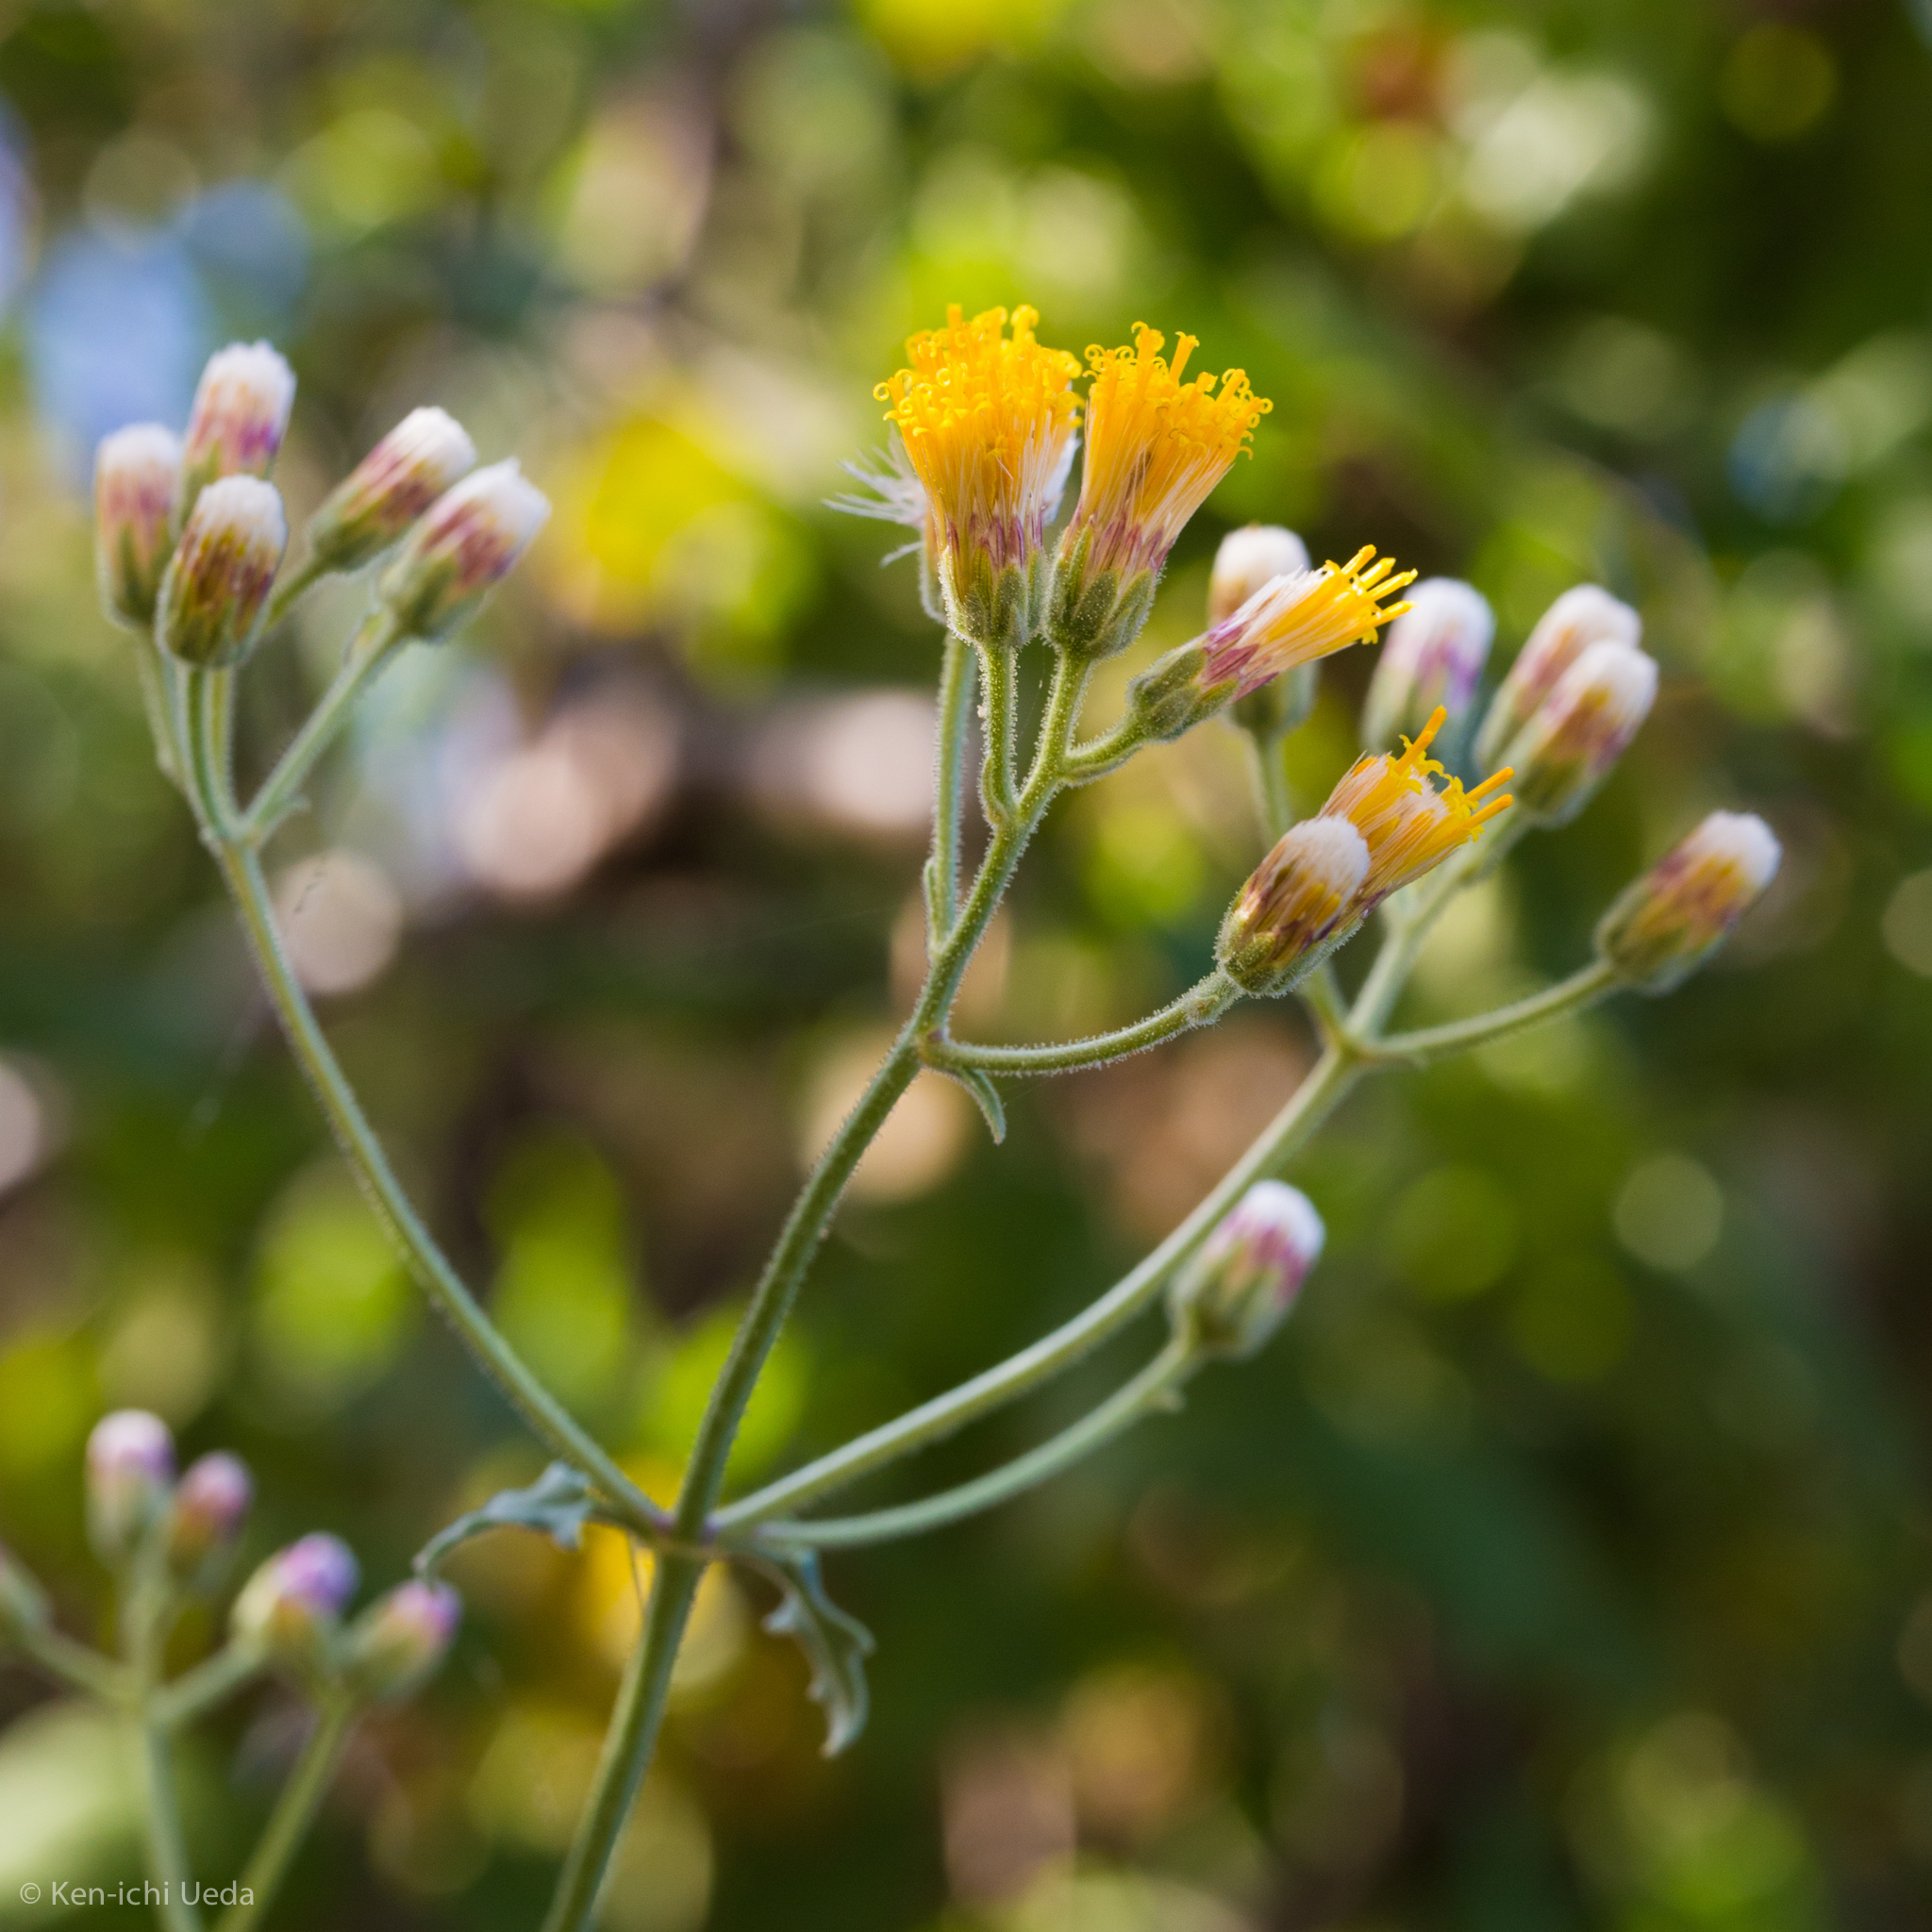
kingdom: Plantae
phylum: Tracheophyta
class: Magnoliopsida
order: Asterales
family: Asteraceae
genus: Bebbia
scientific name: Bebbia atriplicifolia
